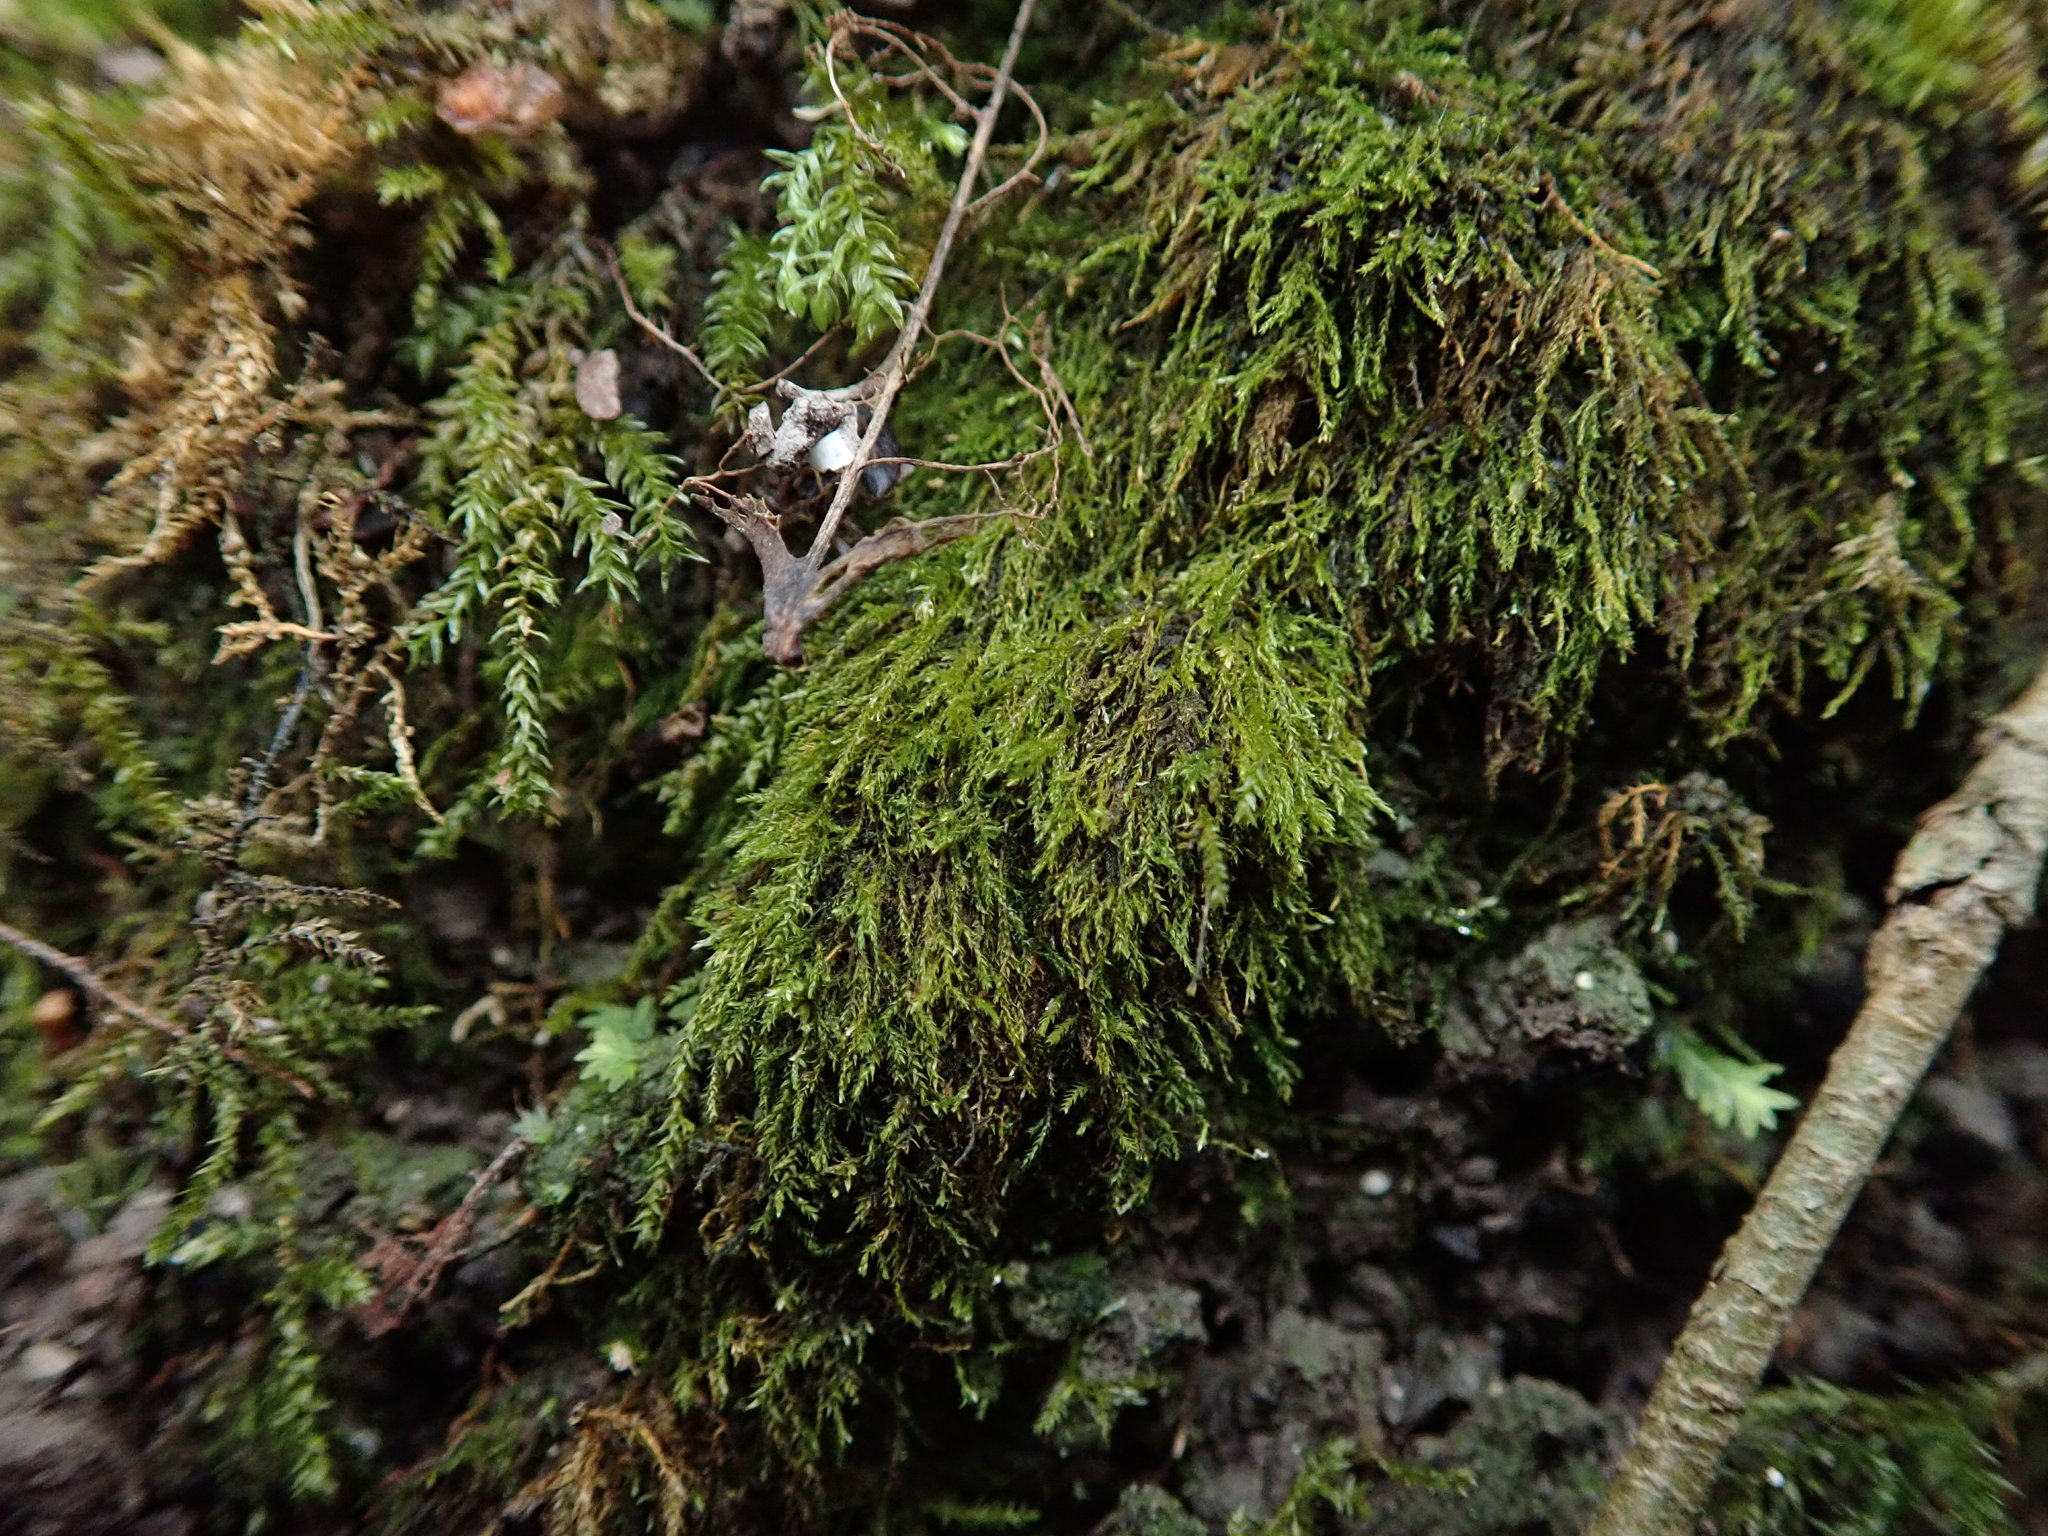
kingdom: Plantae
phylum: Bryophyta
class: Bryopsida
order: Hypnales
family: Amblystegiaceae
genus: Amblystegium
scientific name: Amblystegium serpens
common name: Jurkatzka's feather moss
